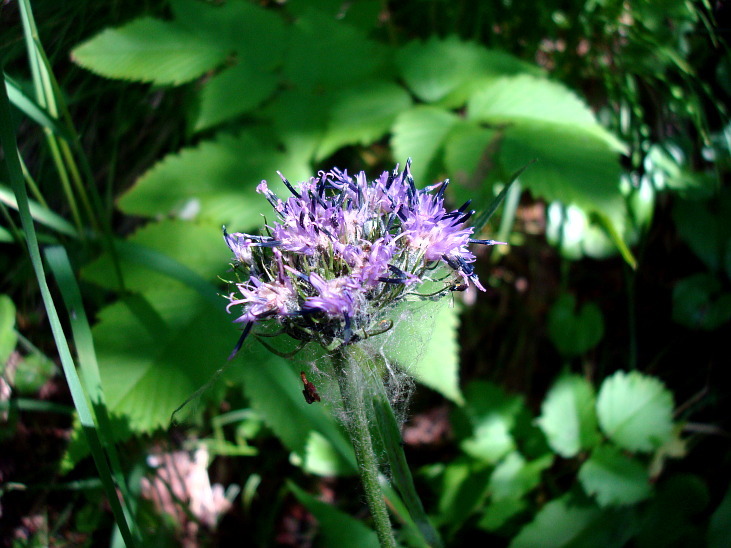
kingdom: Plantae
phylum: Tracheophyta
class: Magnoliopsida
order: Asterales
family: Asteraceae
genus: Saussurea
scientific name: Saussurea pseudotilesii
